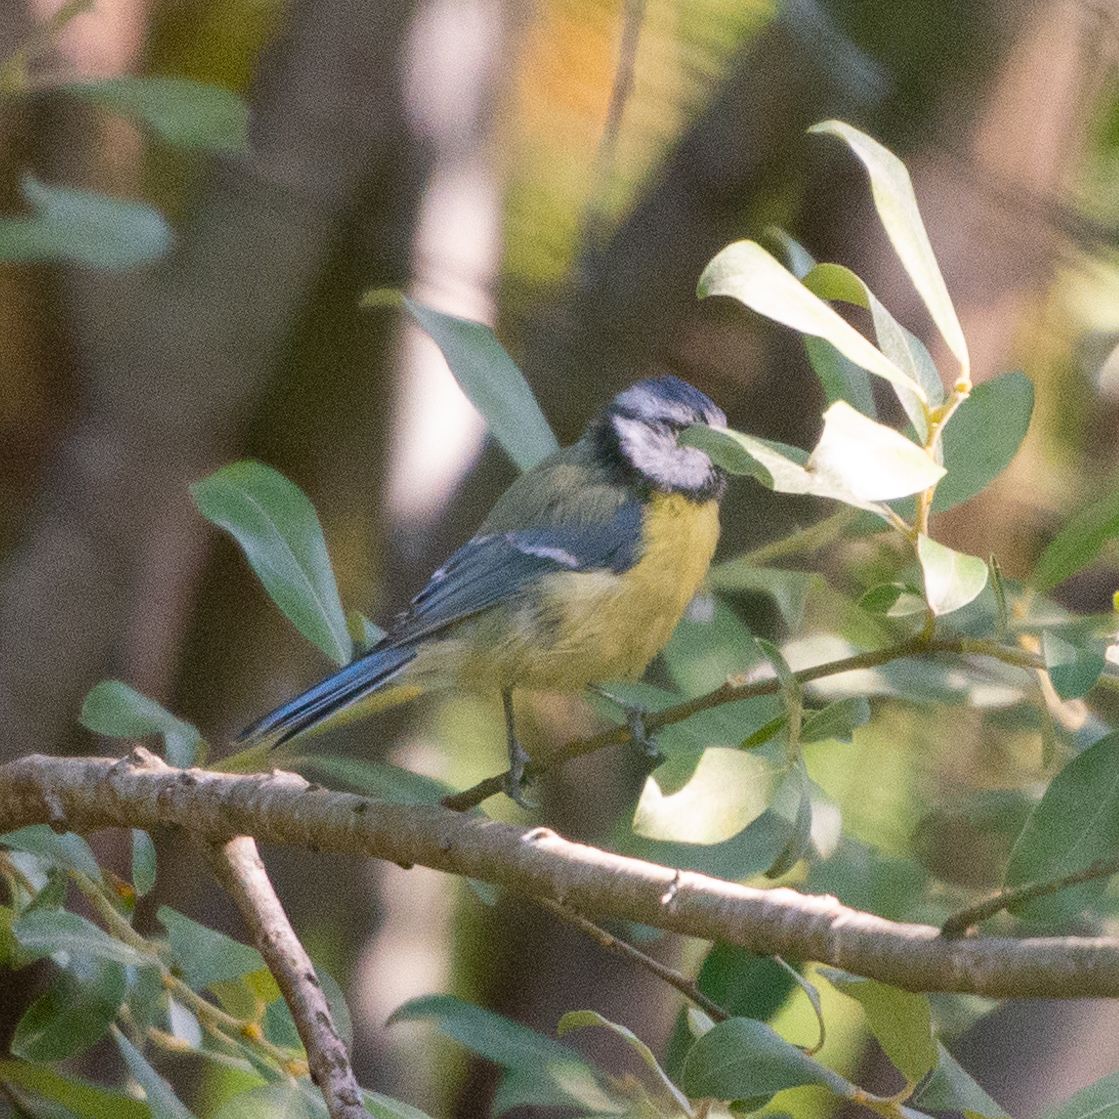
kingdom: Animalia
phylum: Chordata
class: Aves
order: Passeriformes
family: Paridae
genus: Cyanistes
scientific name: Cyanistes caeruleus
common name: Eurasian blue tit
